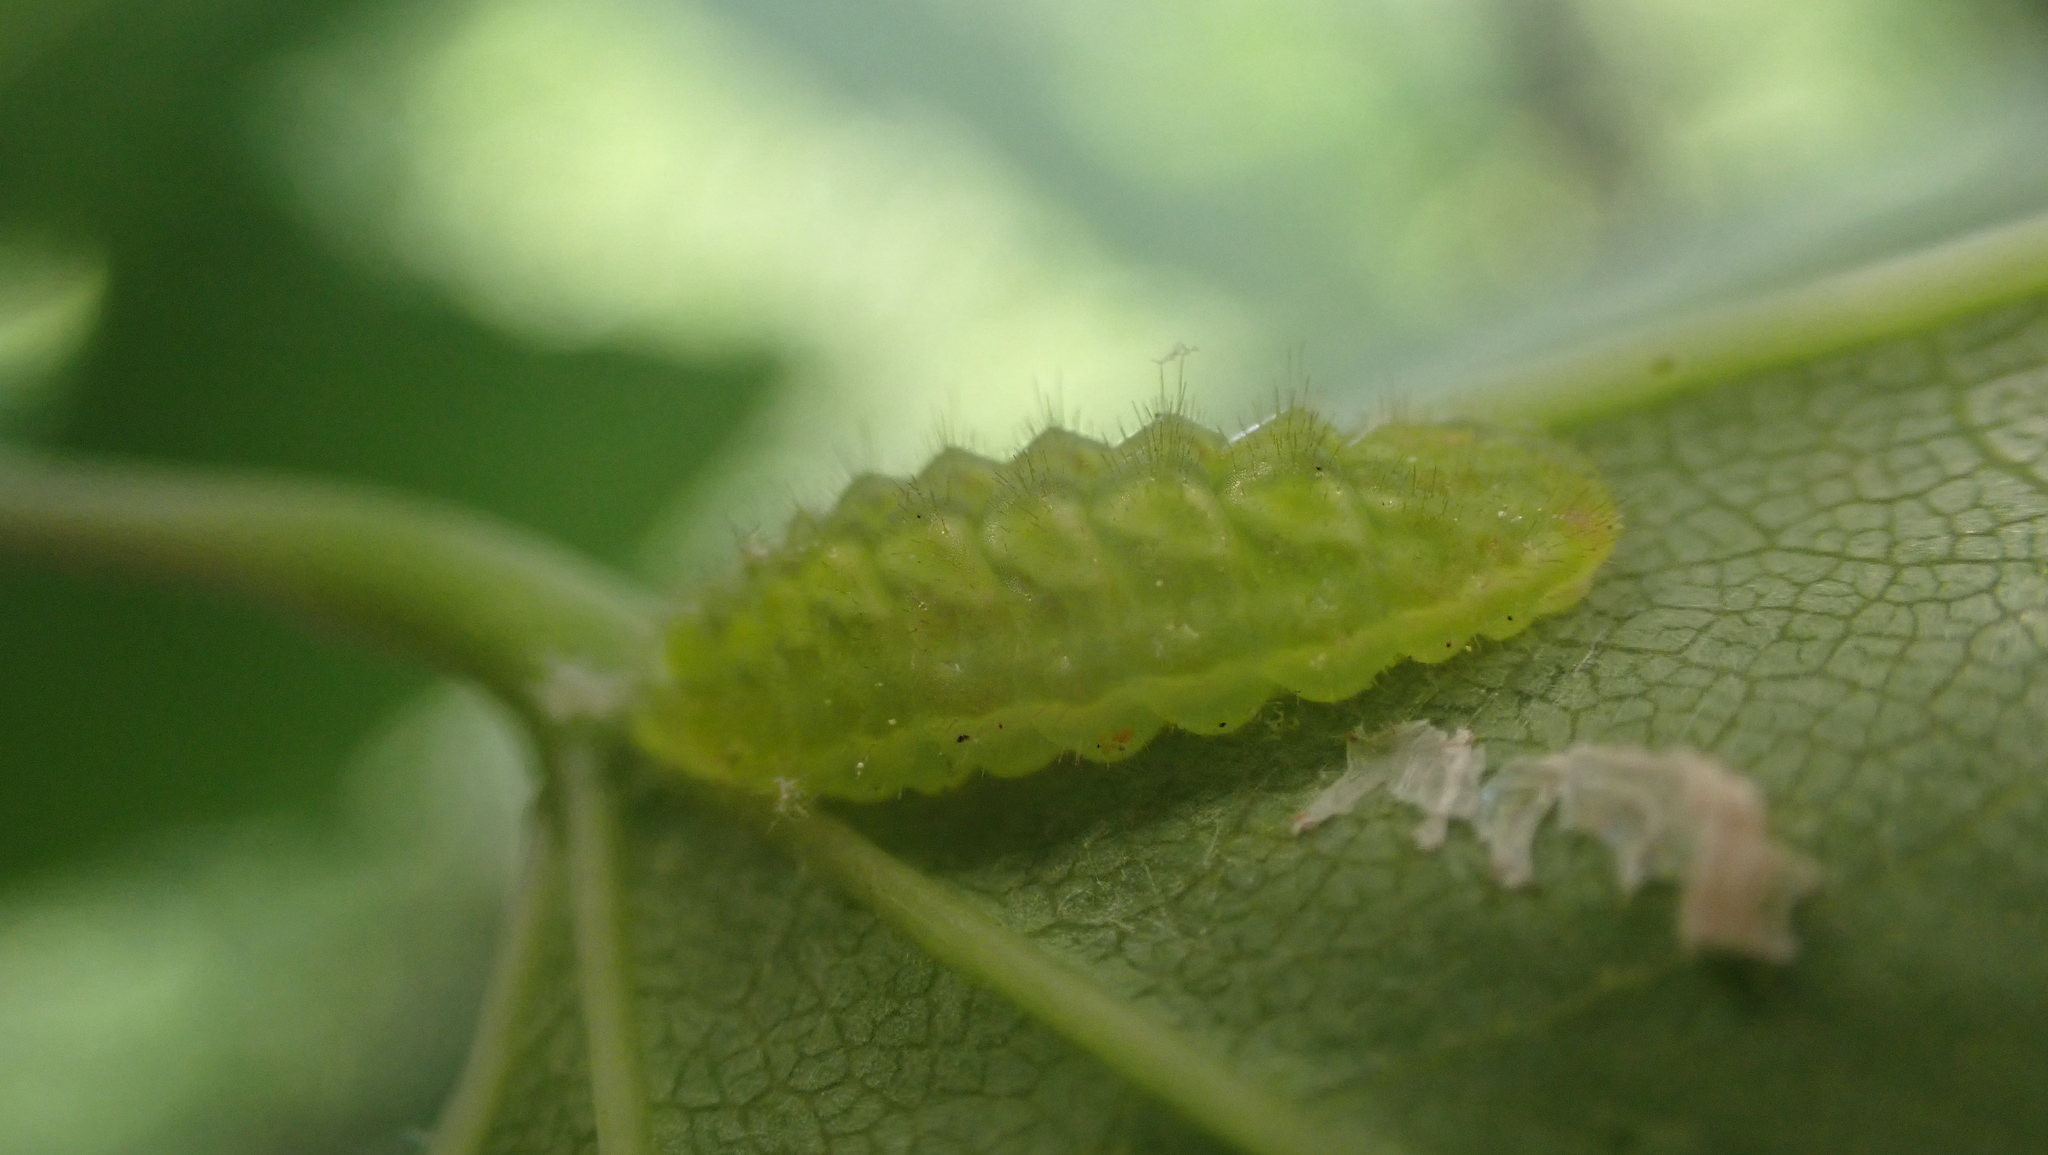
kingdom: Animalia
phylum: Arthropoda
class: Insecta
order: Lepidoptera
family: Lycaenidae
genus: Incisalia
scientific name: Incisalia henrici
